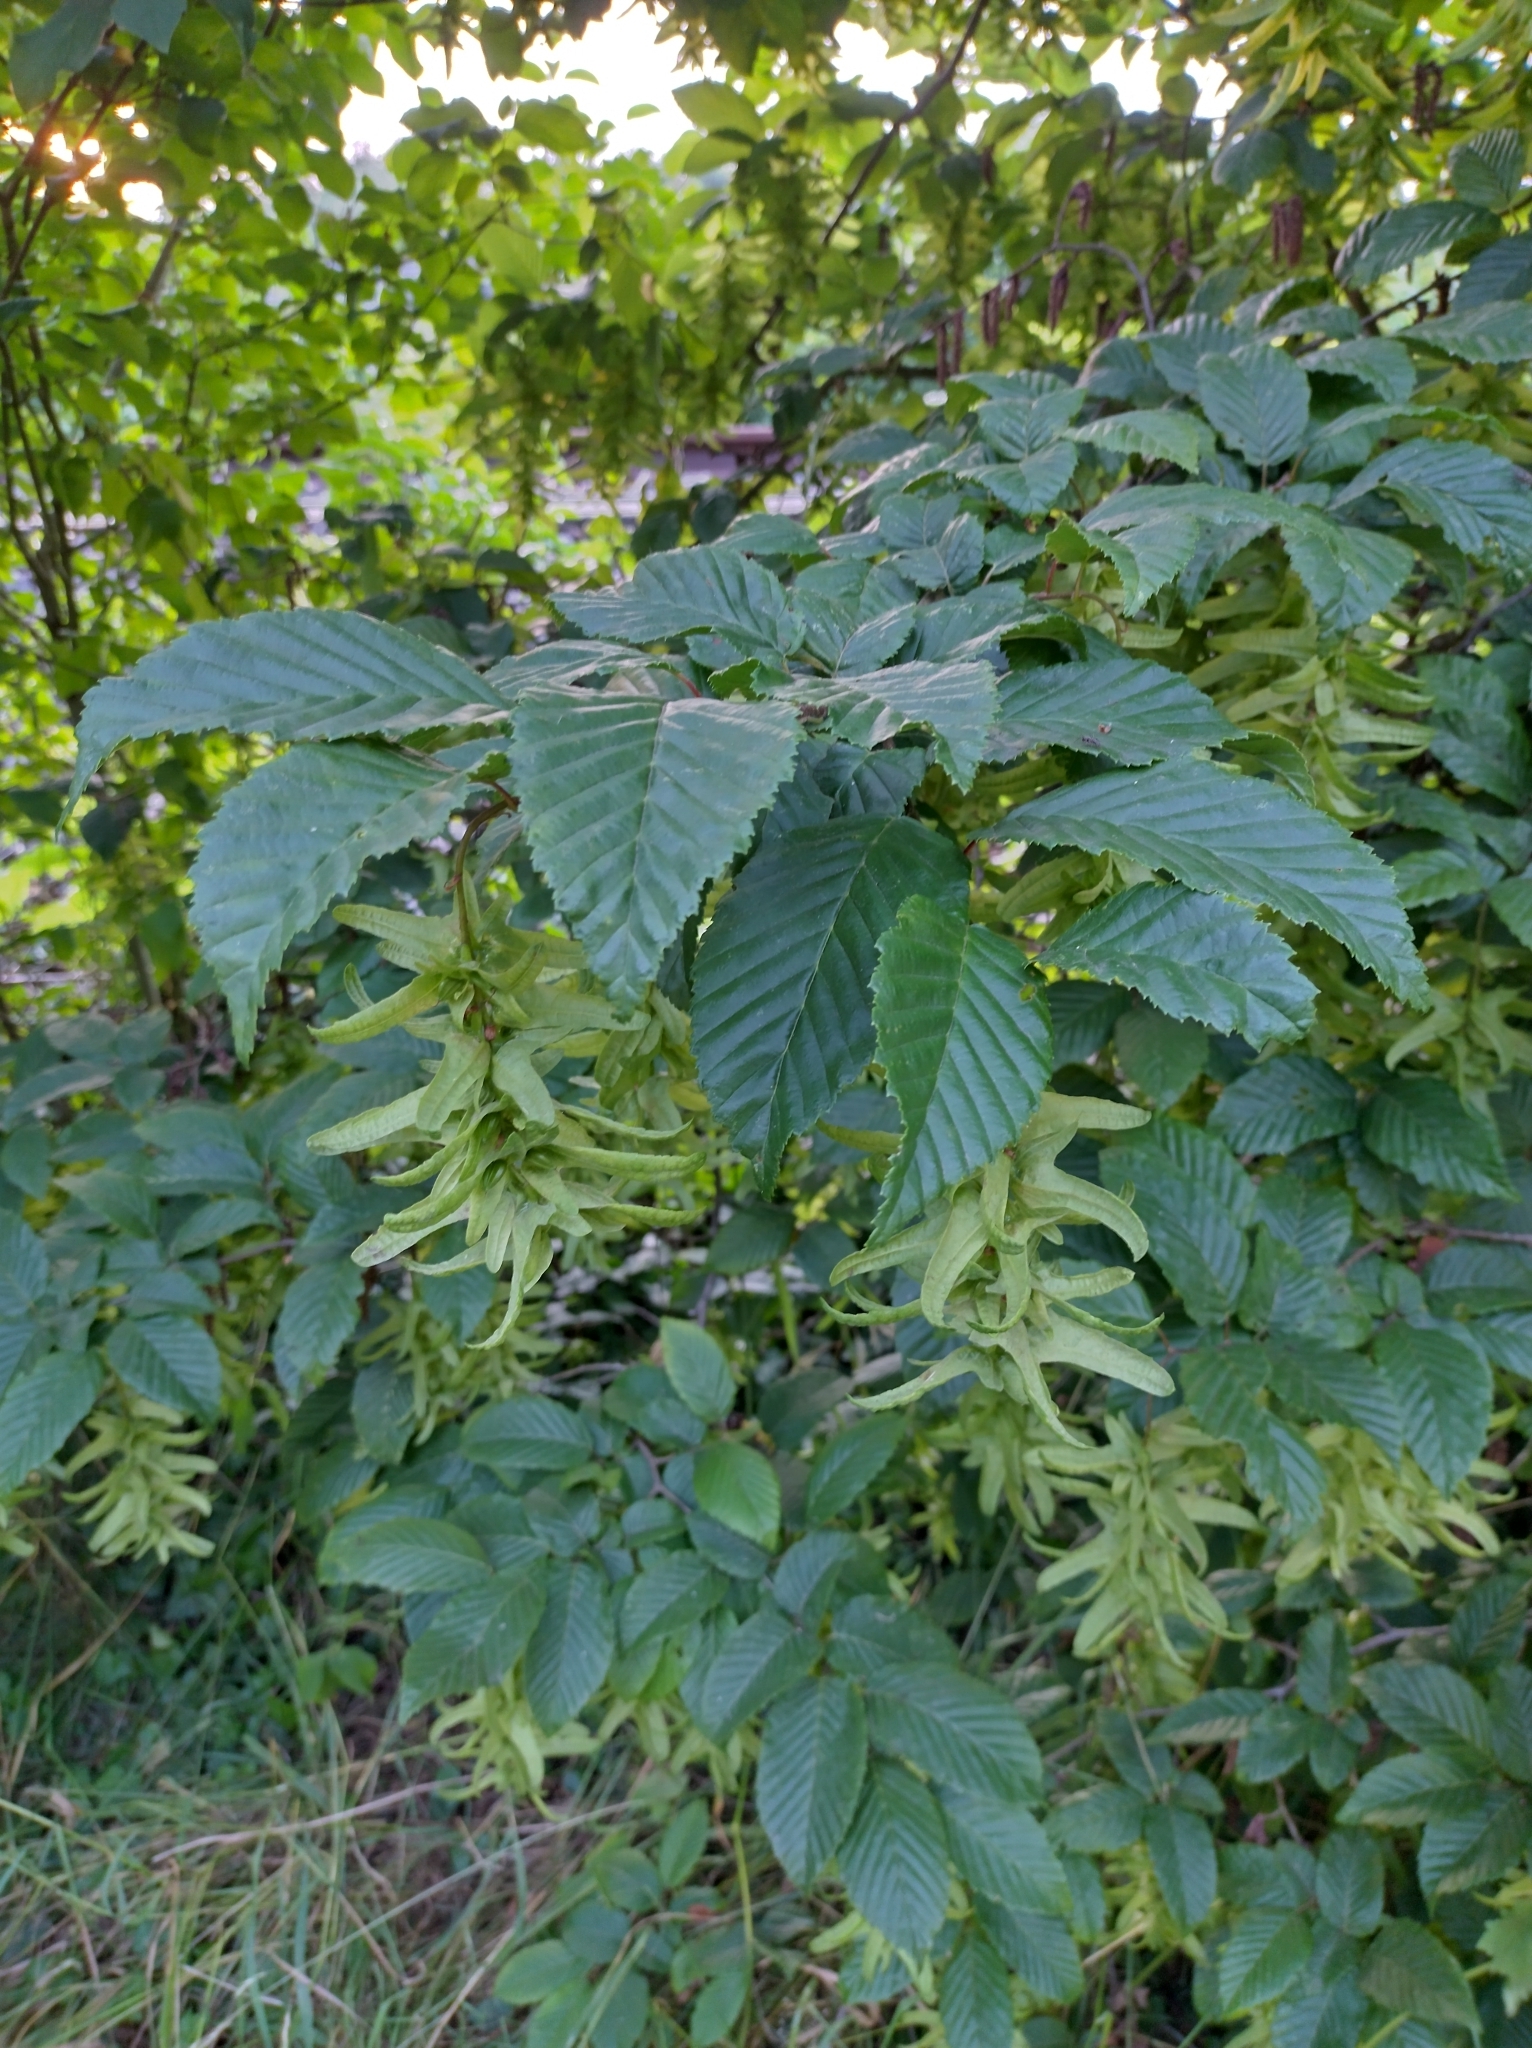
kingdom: Plantae
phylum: Tracheophyta
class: Magnoliopsida
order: Fagales
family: Betulaceae
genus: Carpinus
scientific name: Carpinus betulus
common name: Hornbeam
